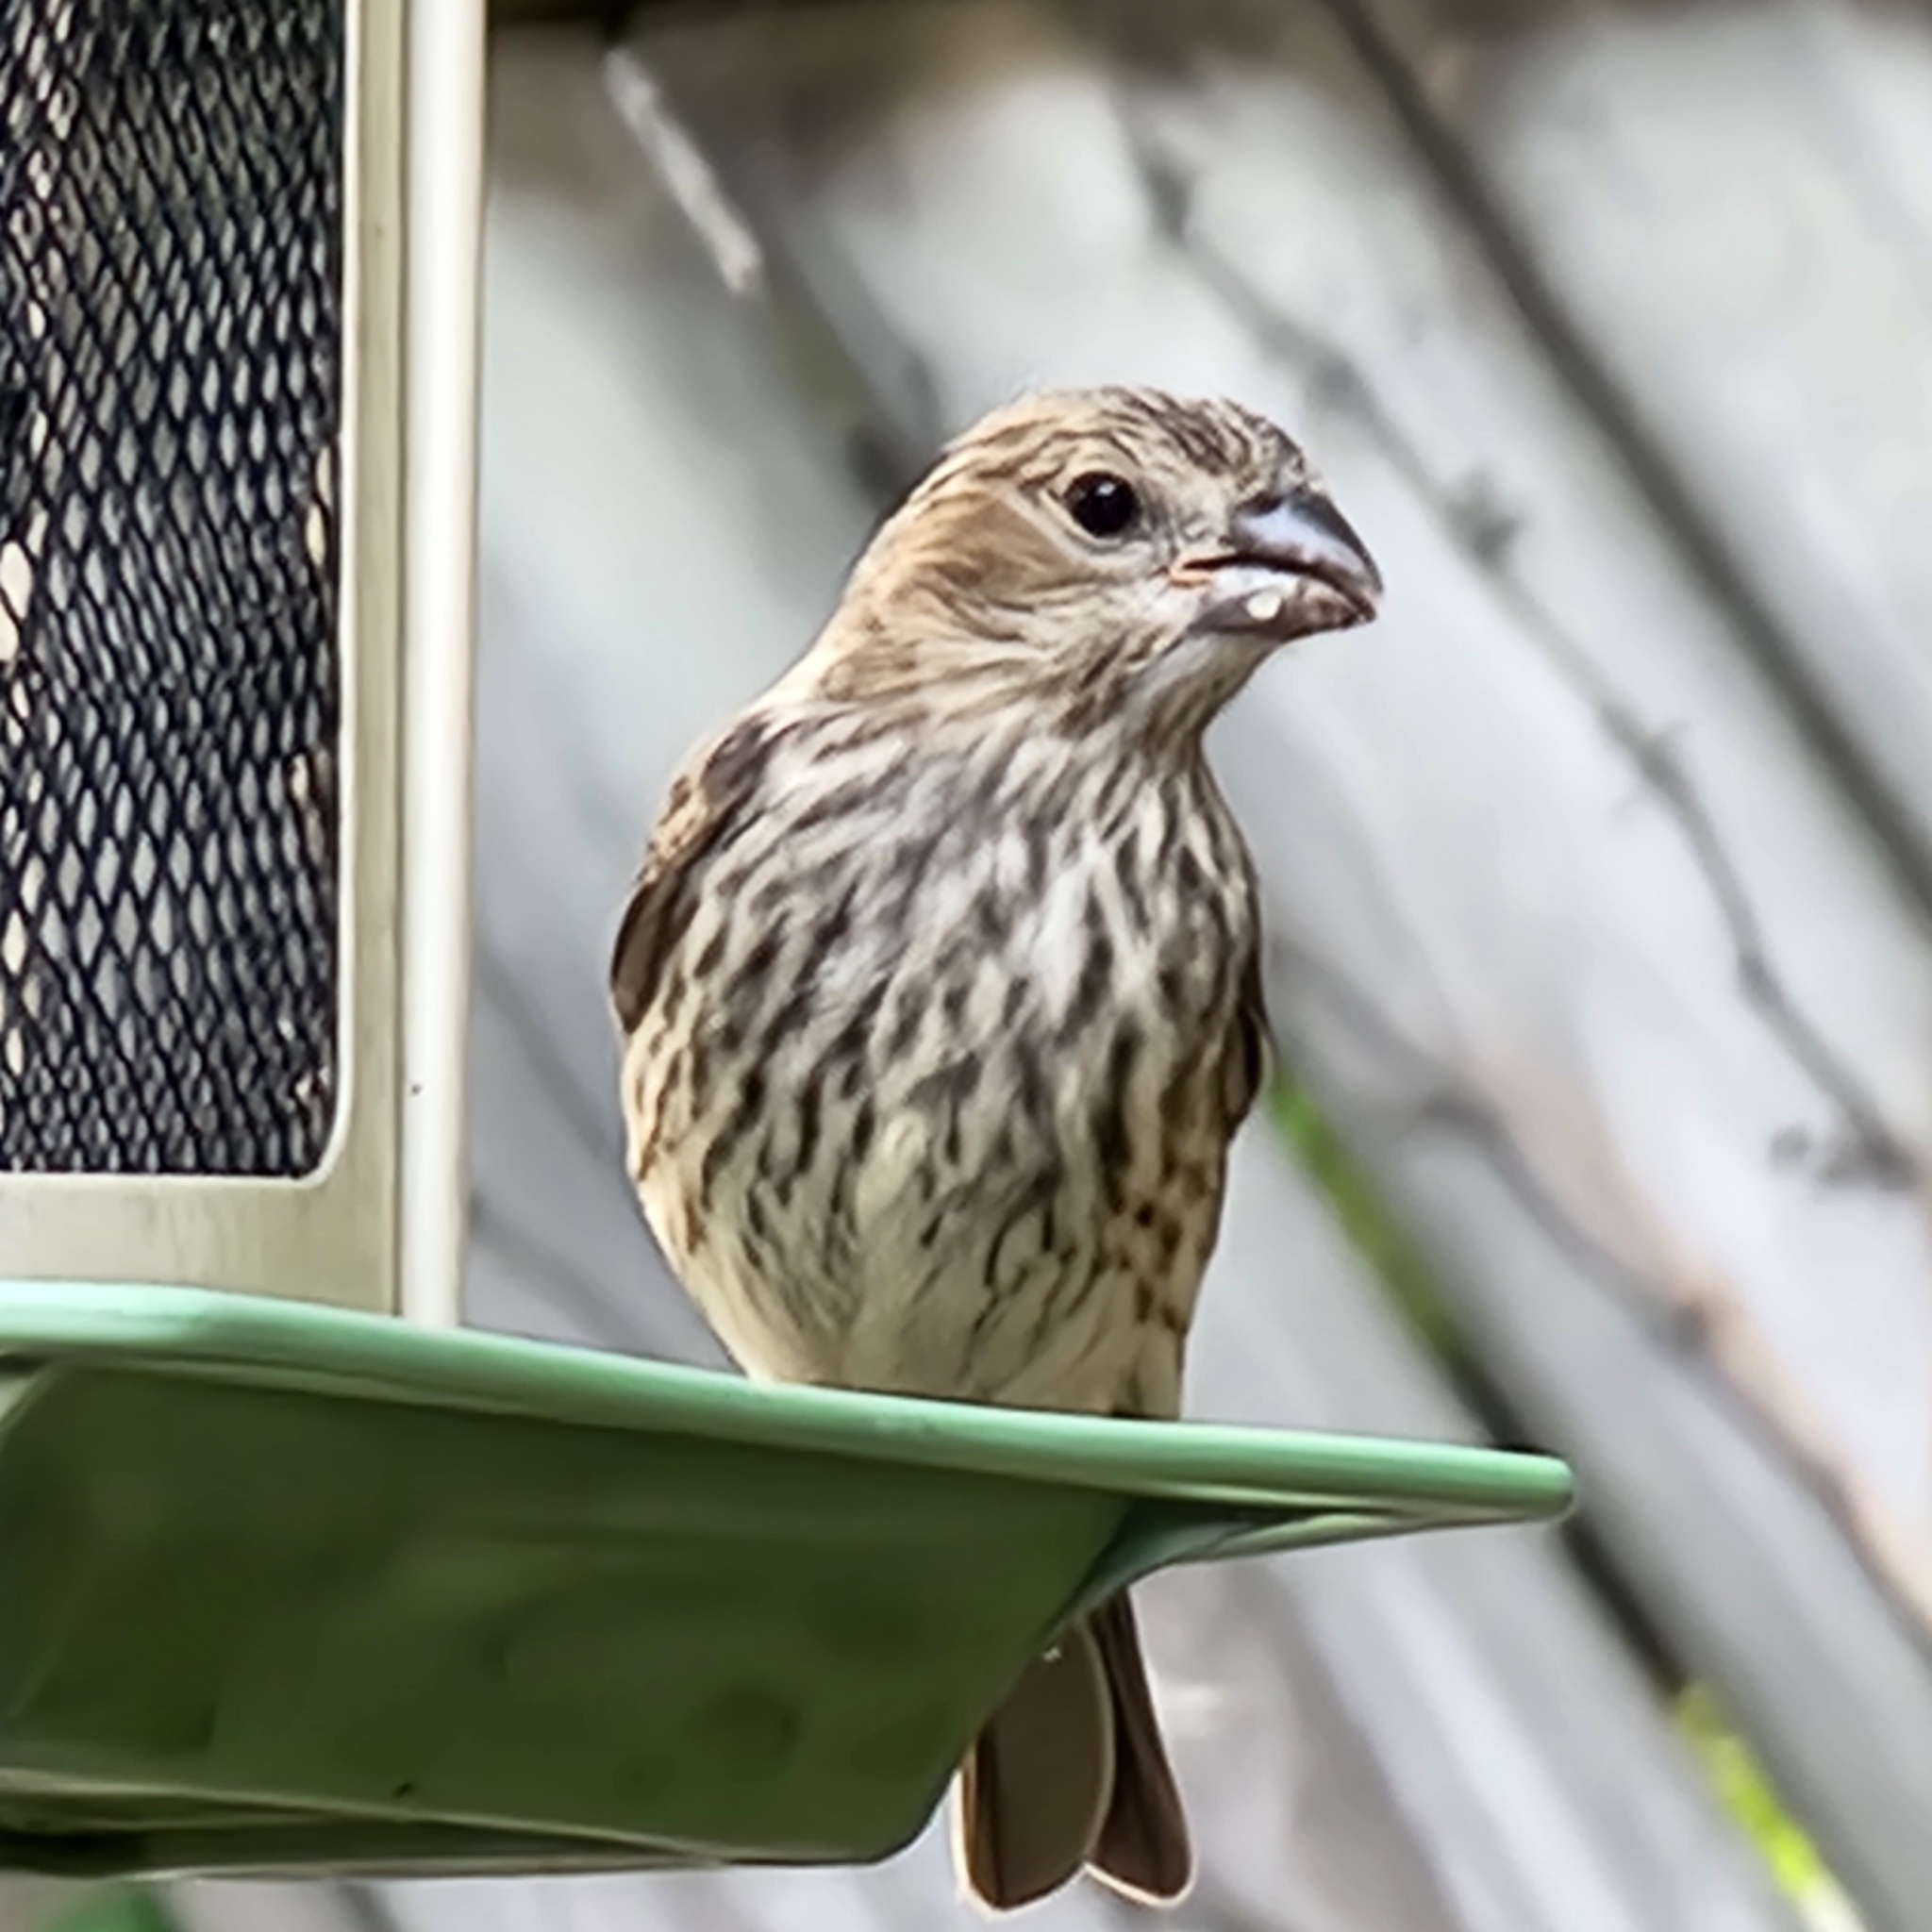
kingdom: Animalia
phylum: Chordata
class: Aves
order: Passeriformes
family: Fringillidae
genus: Haemorhous
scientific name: Haemorhous mexicanus
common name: House finch
